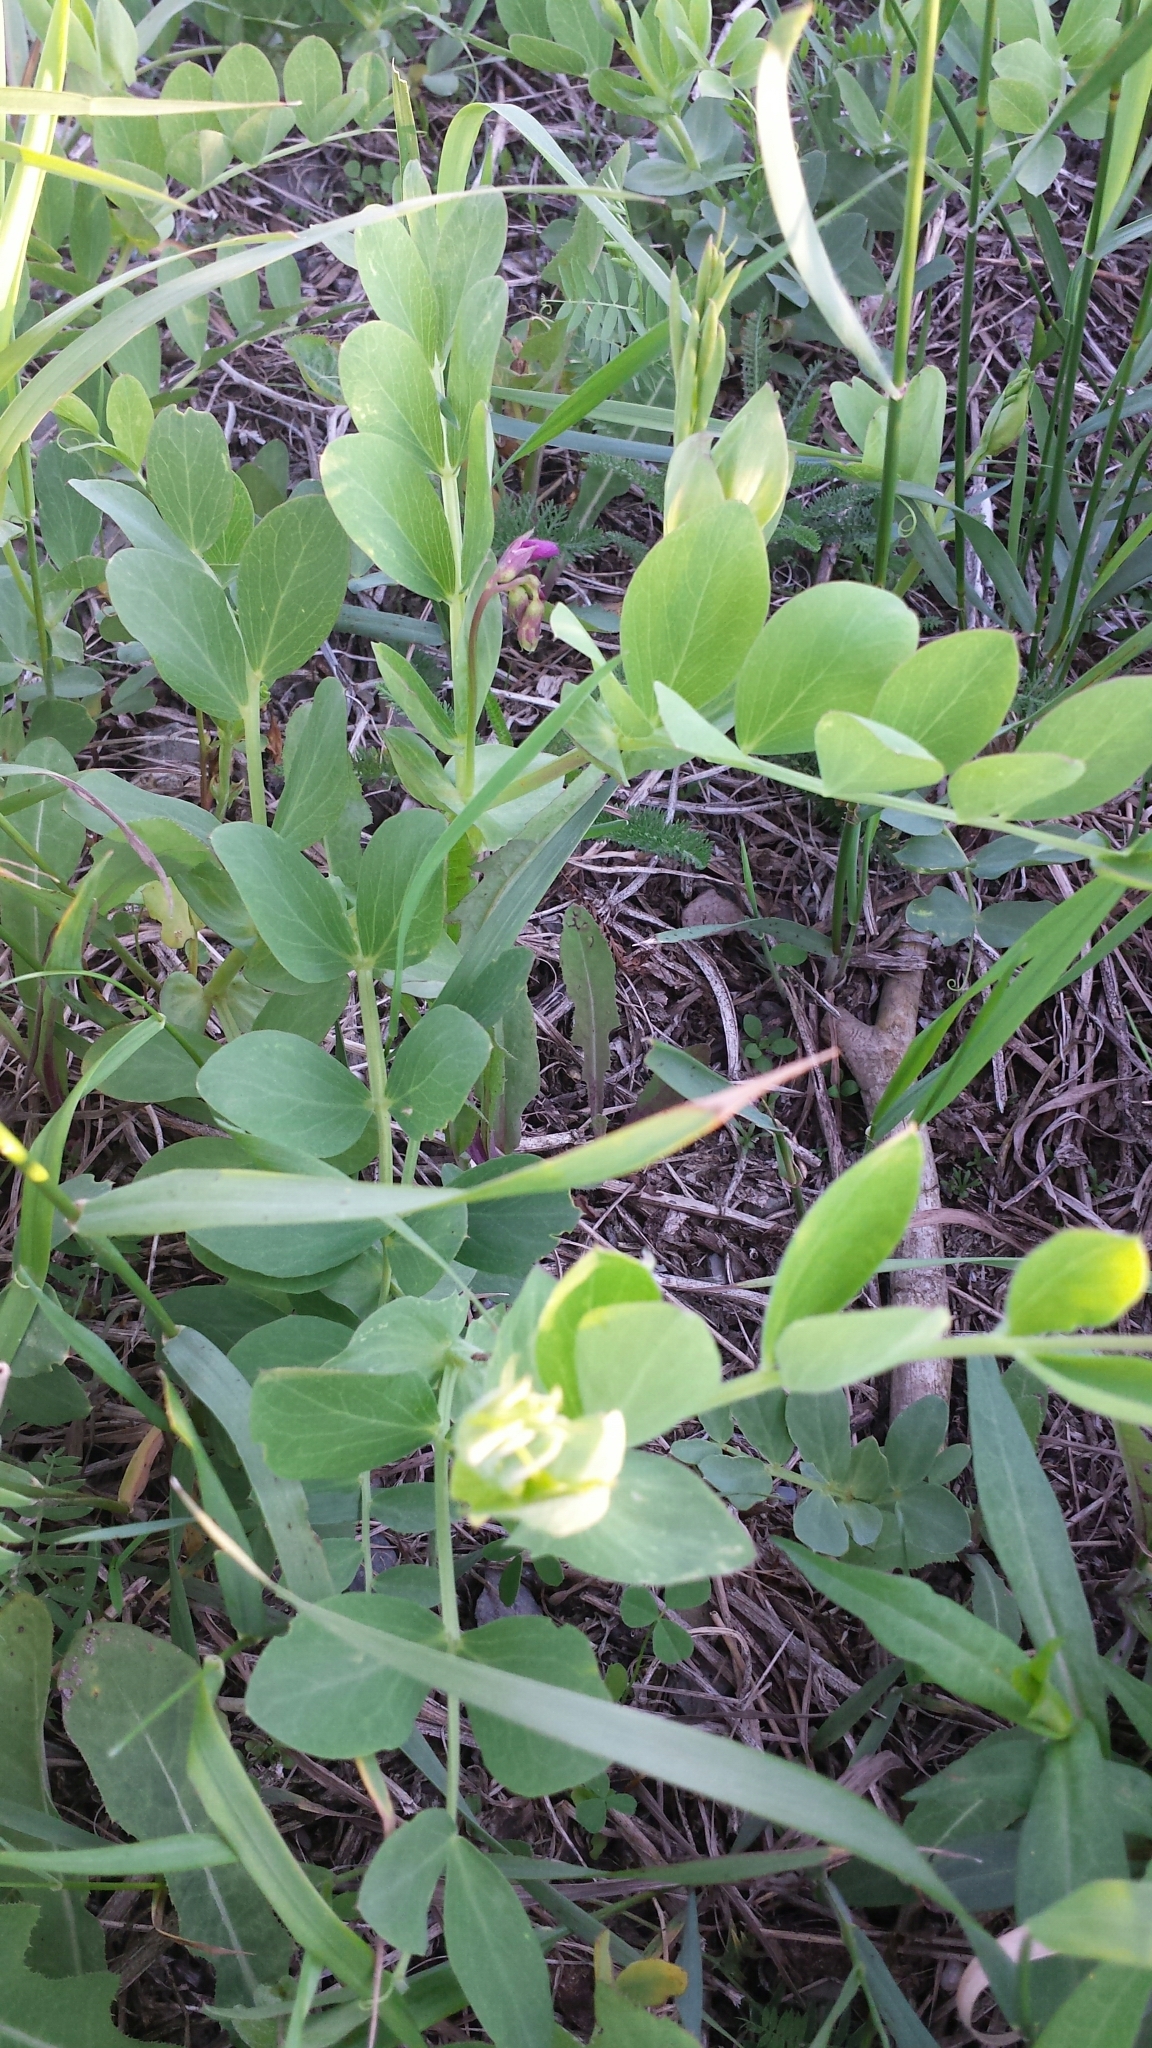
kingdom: Plantae
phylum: Tracheophyta
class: Magnoliopsida
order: Fabales
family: Fabaceae
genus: Lathyrus
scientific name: Lathyrus japonicus
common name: Sea pea
